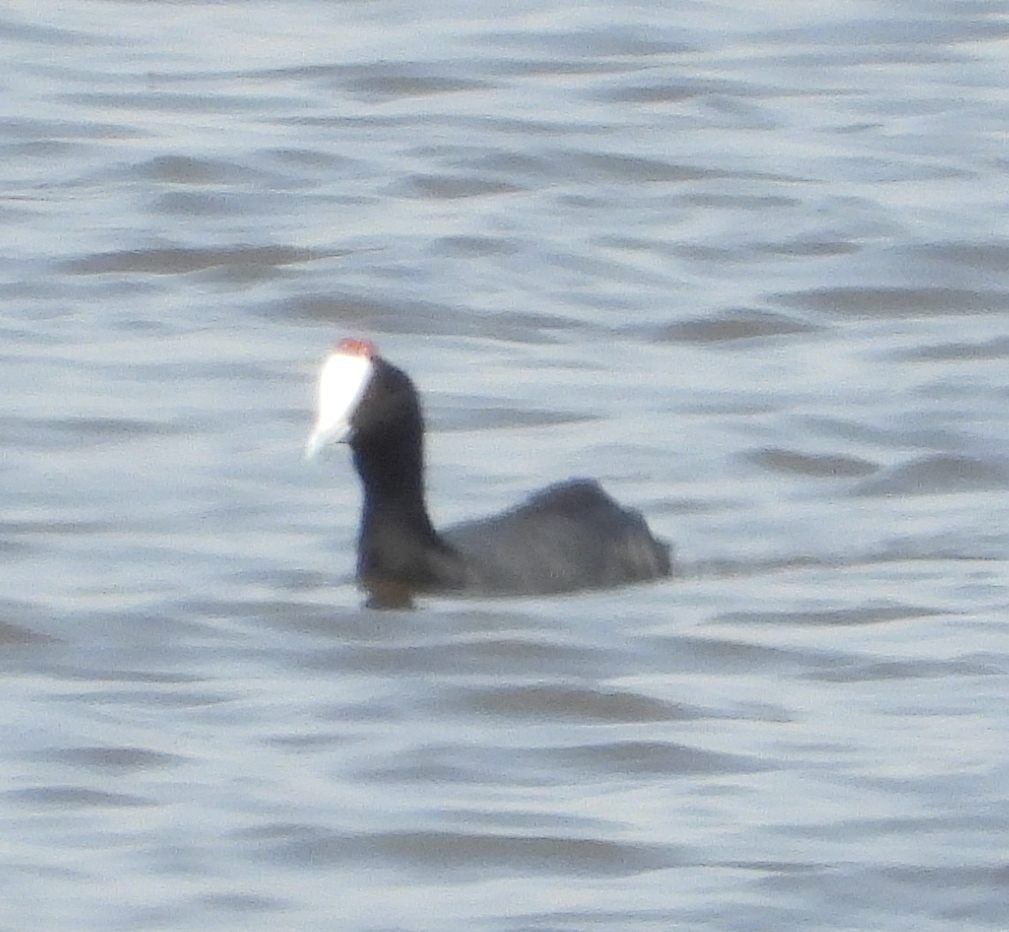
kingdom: Animalia
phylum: Chordata
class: Aves
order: Gruiformes
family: Rallidae
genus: Fulica
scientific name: Fulica cristata
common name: Red-knobbed coot
